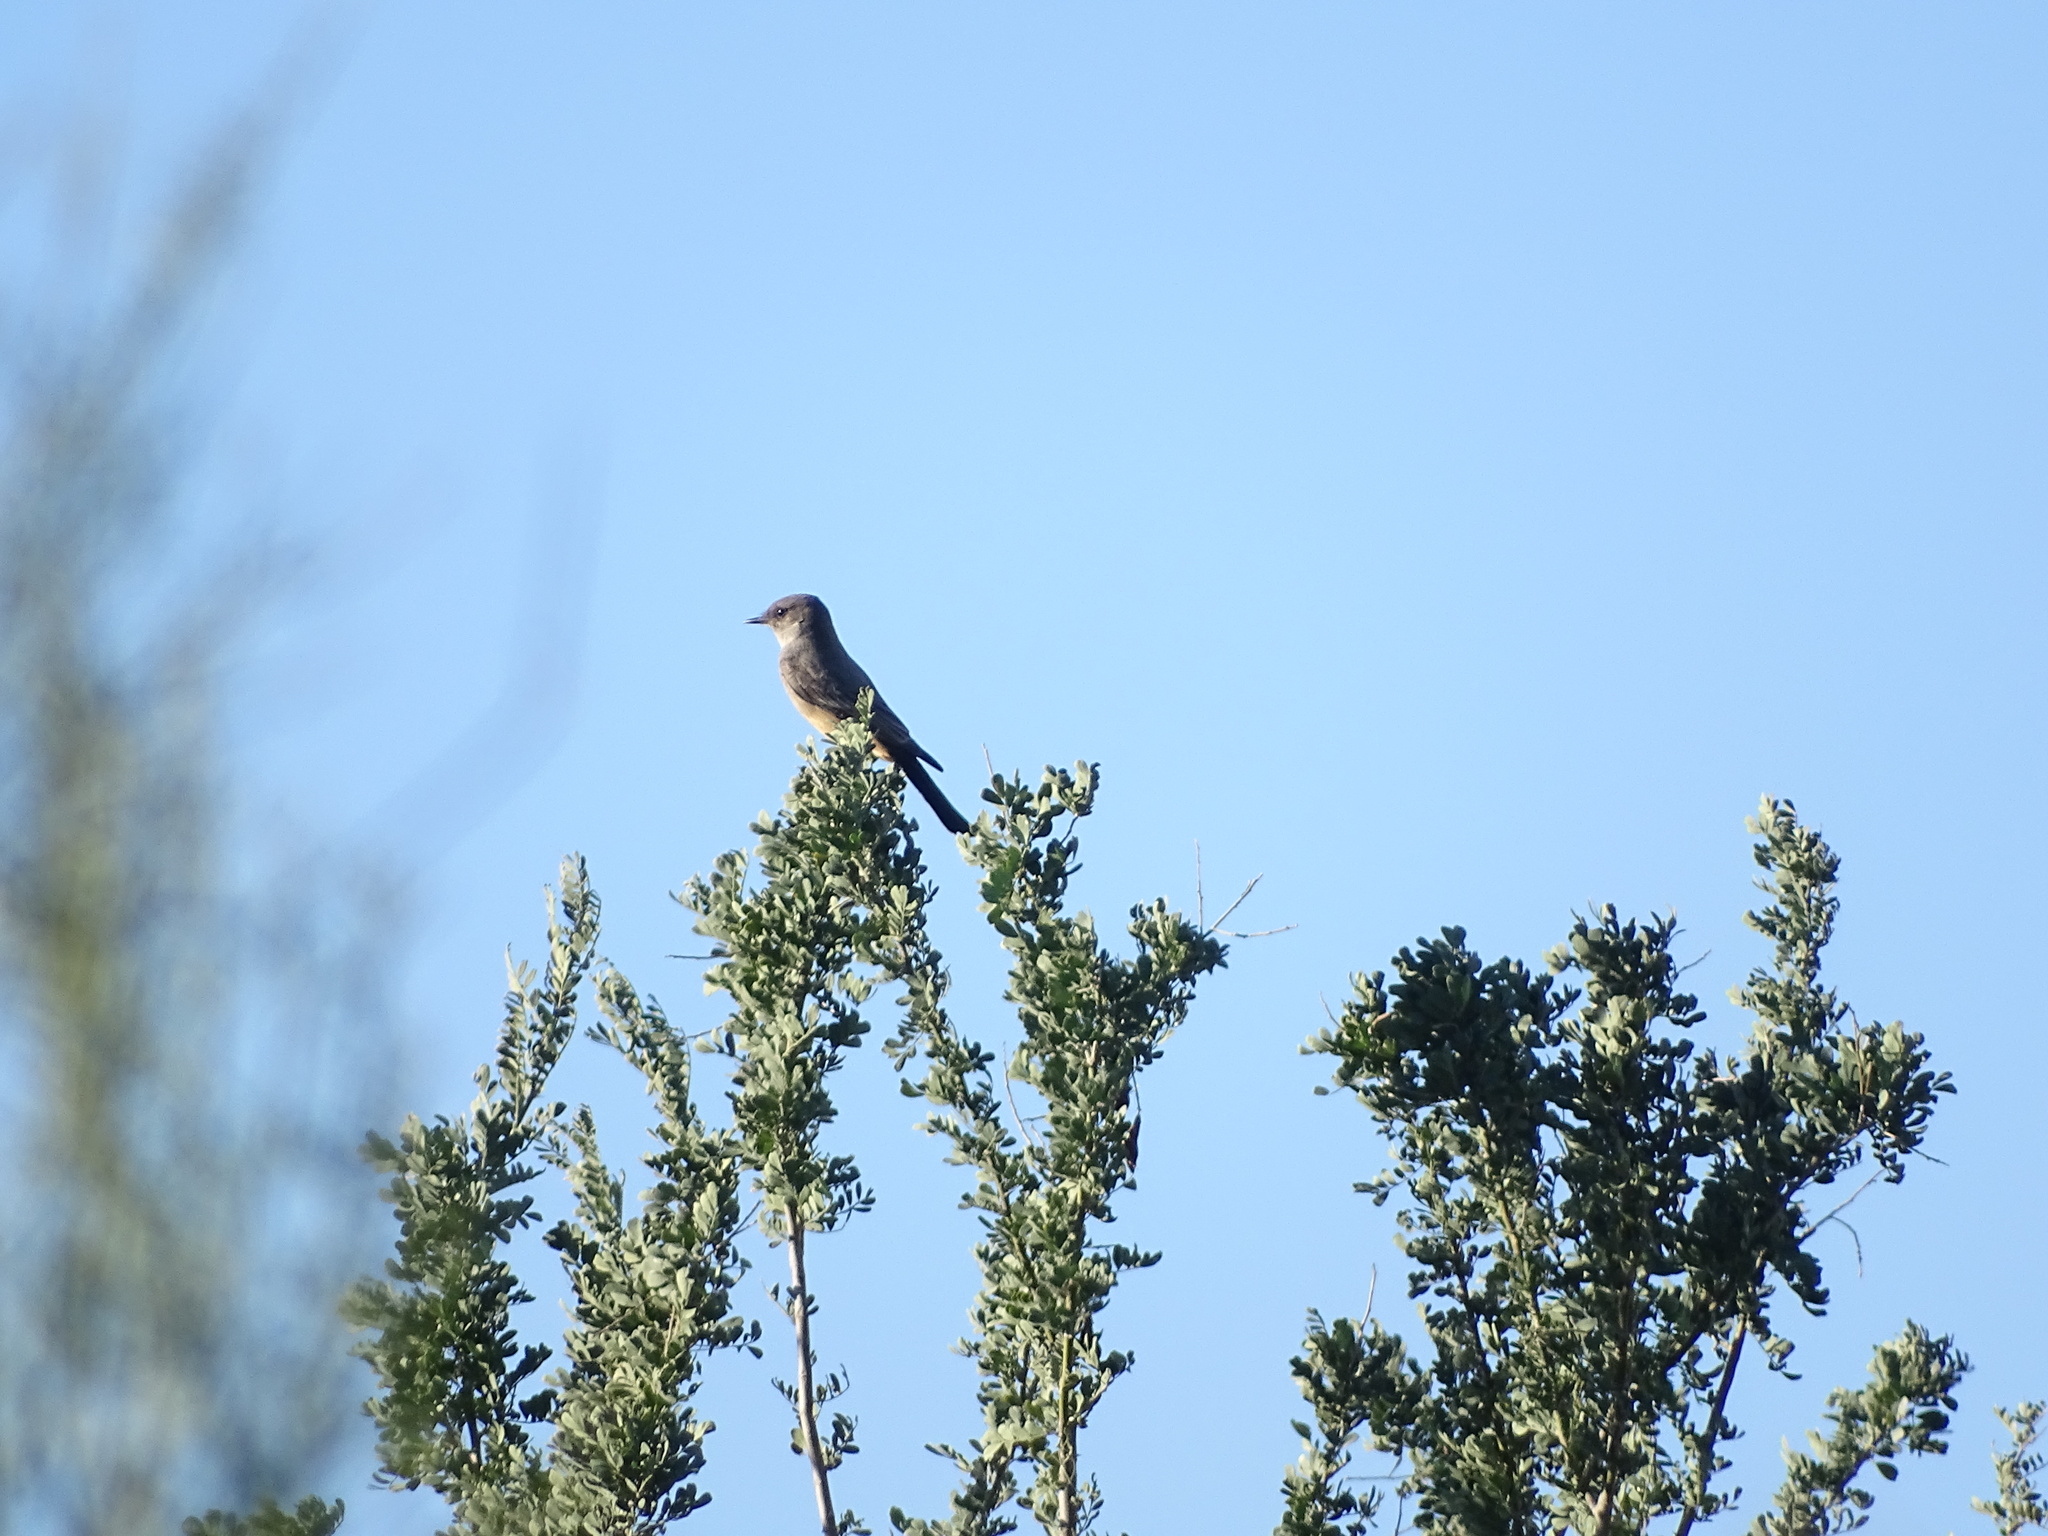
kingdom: Animalia
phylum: Chordata
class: Aves
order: Passeriformes
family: Tyrannidae
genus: Sayornis
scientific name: Sayornis saya
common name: Say's phoebe
